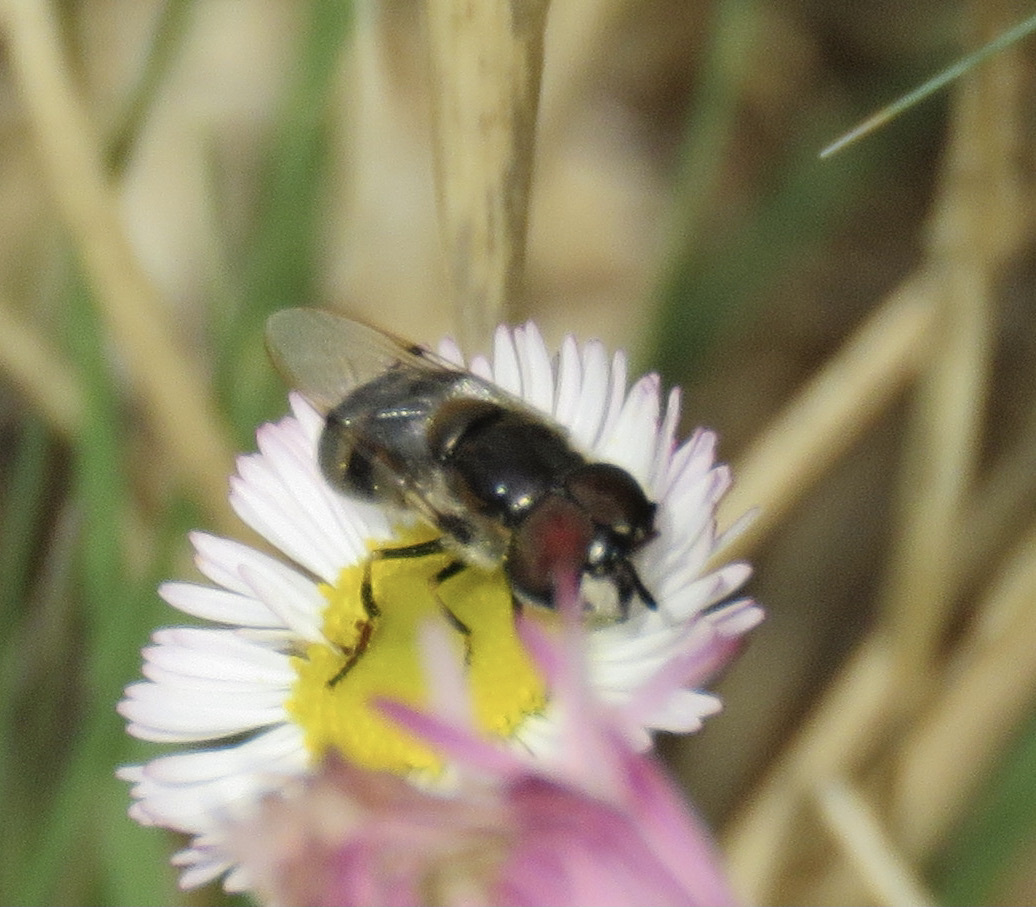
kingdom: Animalia
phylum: Arthropoda
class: Insecta
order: Diptera
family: Syrphidae
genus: Copestylum
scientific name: Copestylum caudatum
